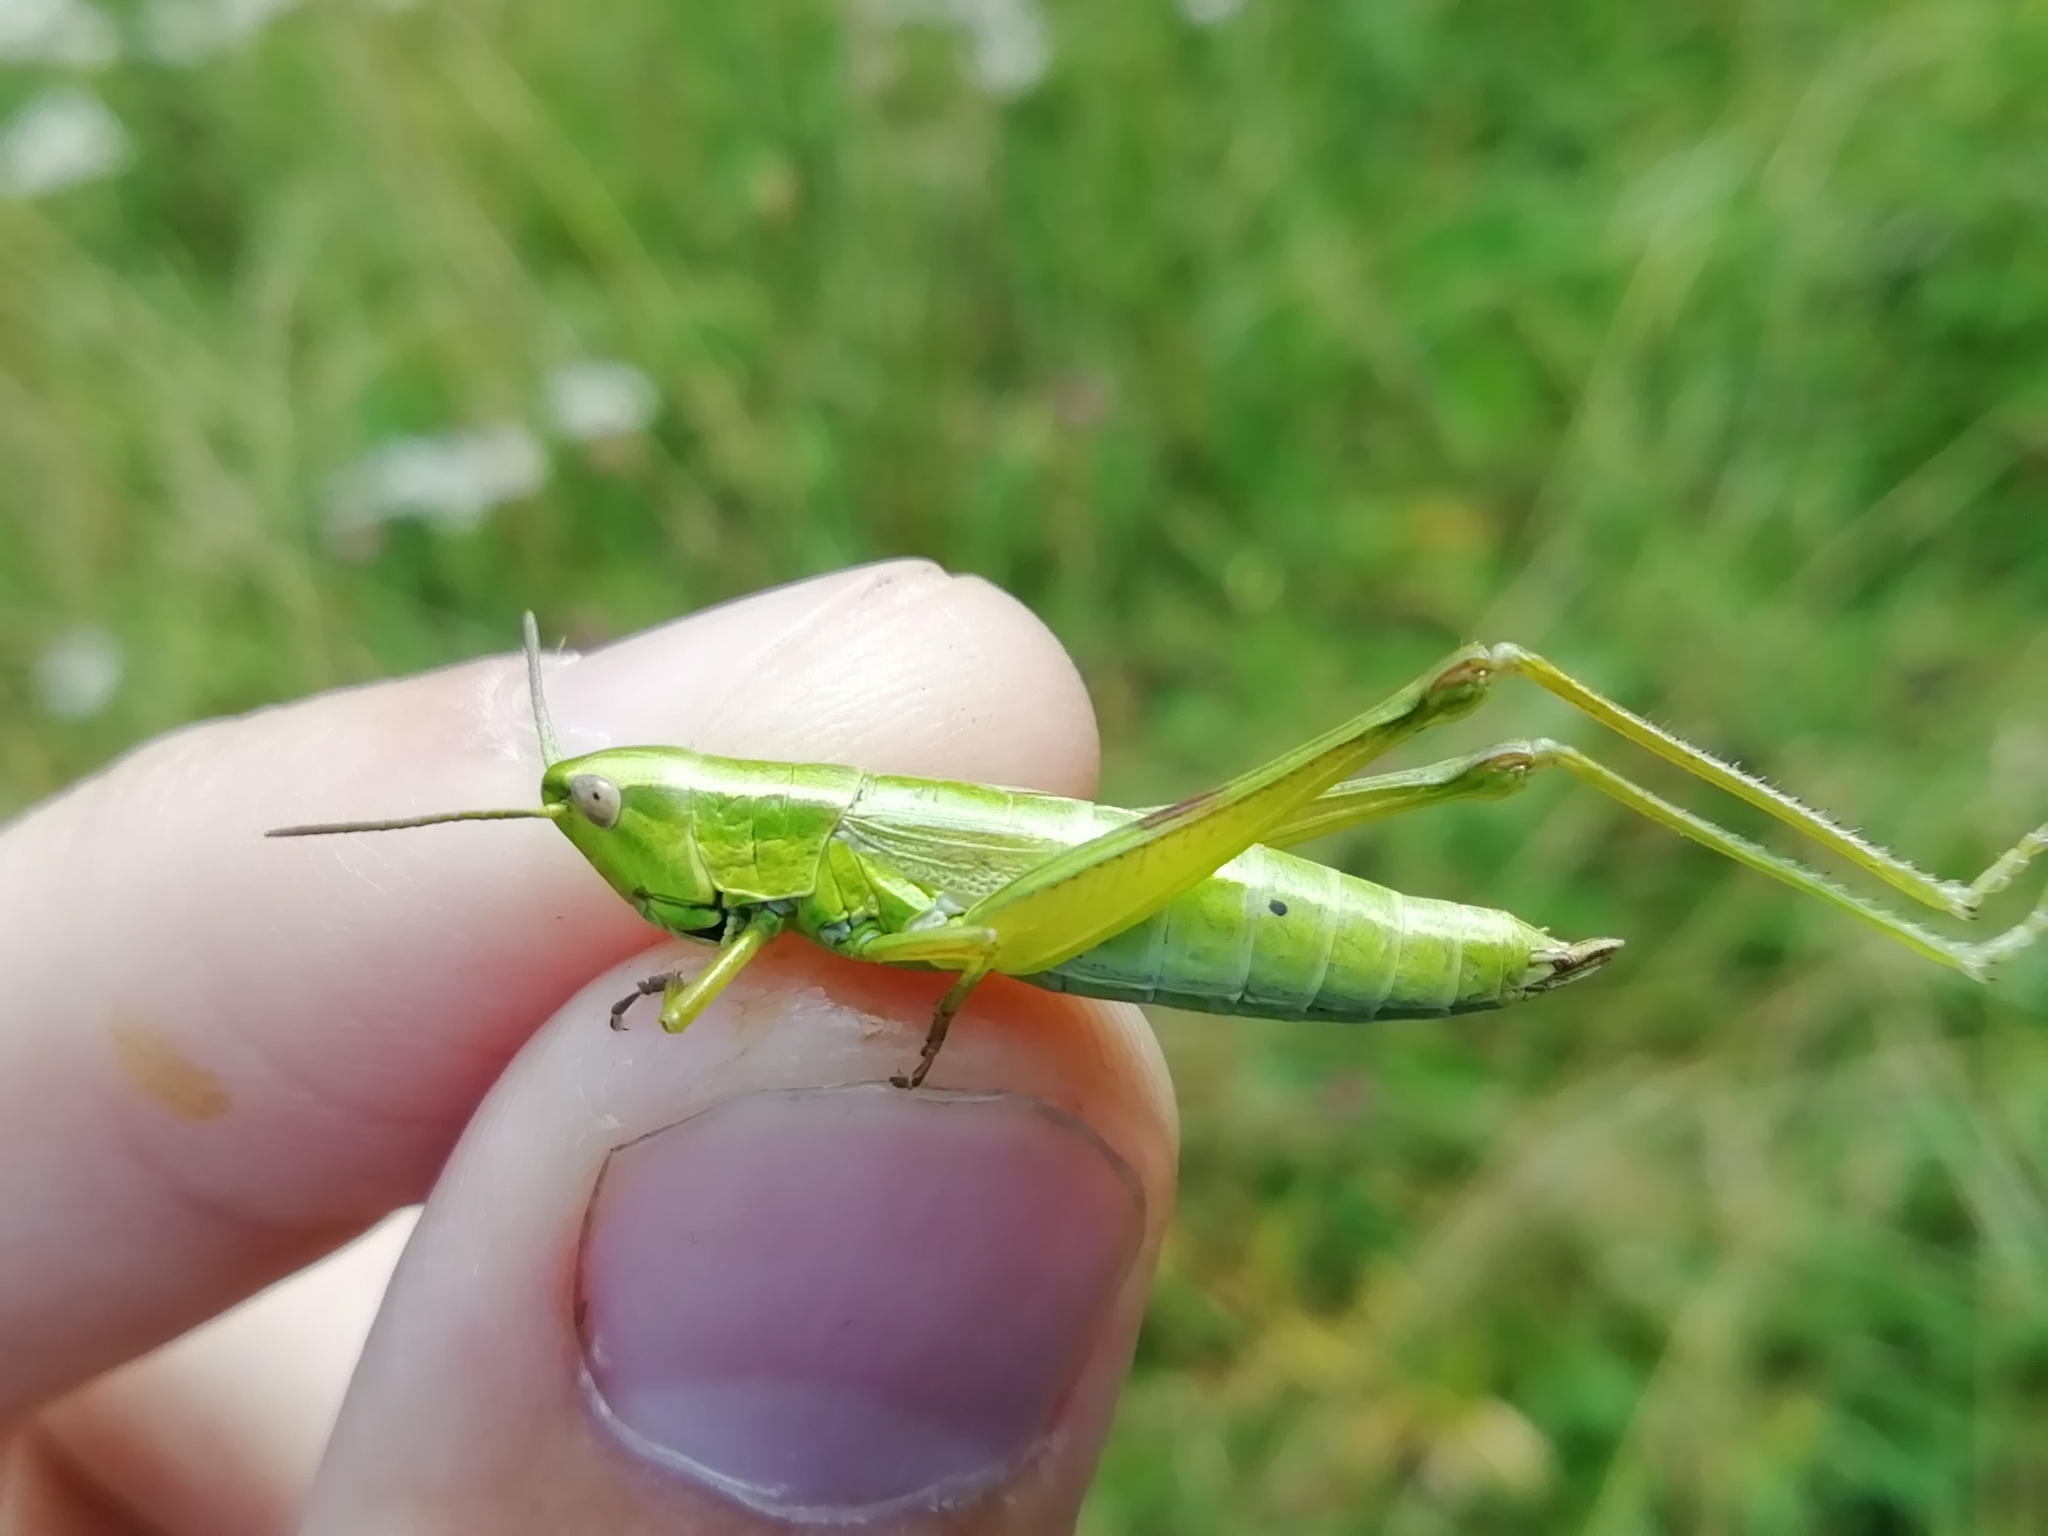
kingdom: Animalia
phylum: Arthropoda
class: Insecta
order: Orthoptera
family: Acrididae
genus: Euthystira
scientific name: Euthystira brachyptera
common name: Small gold grasshopper
